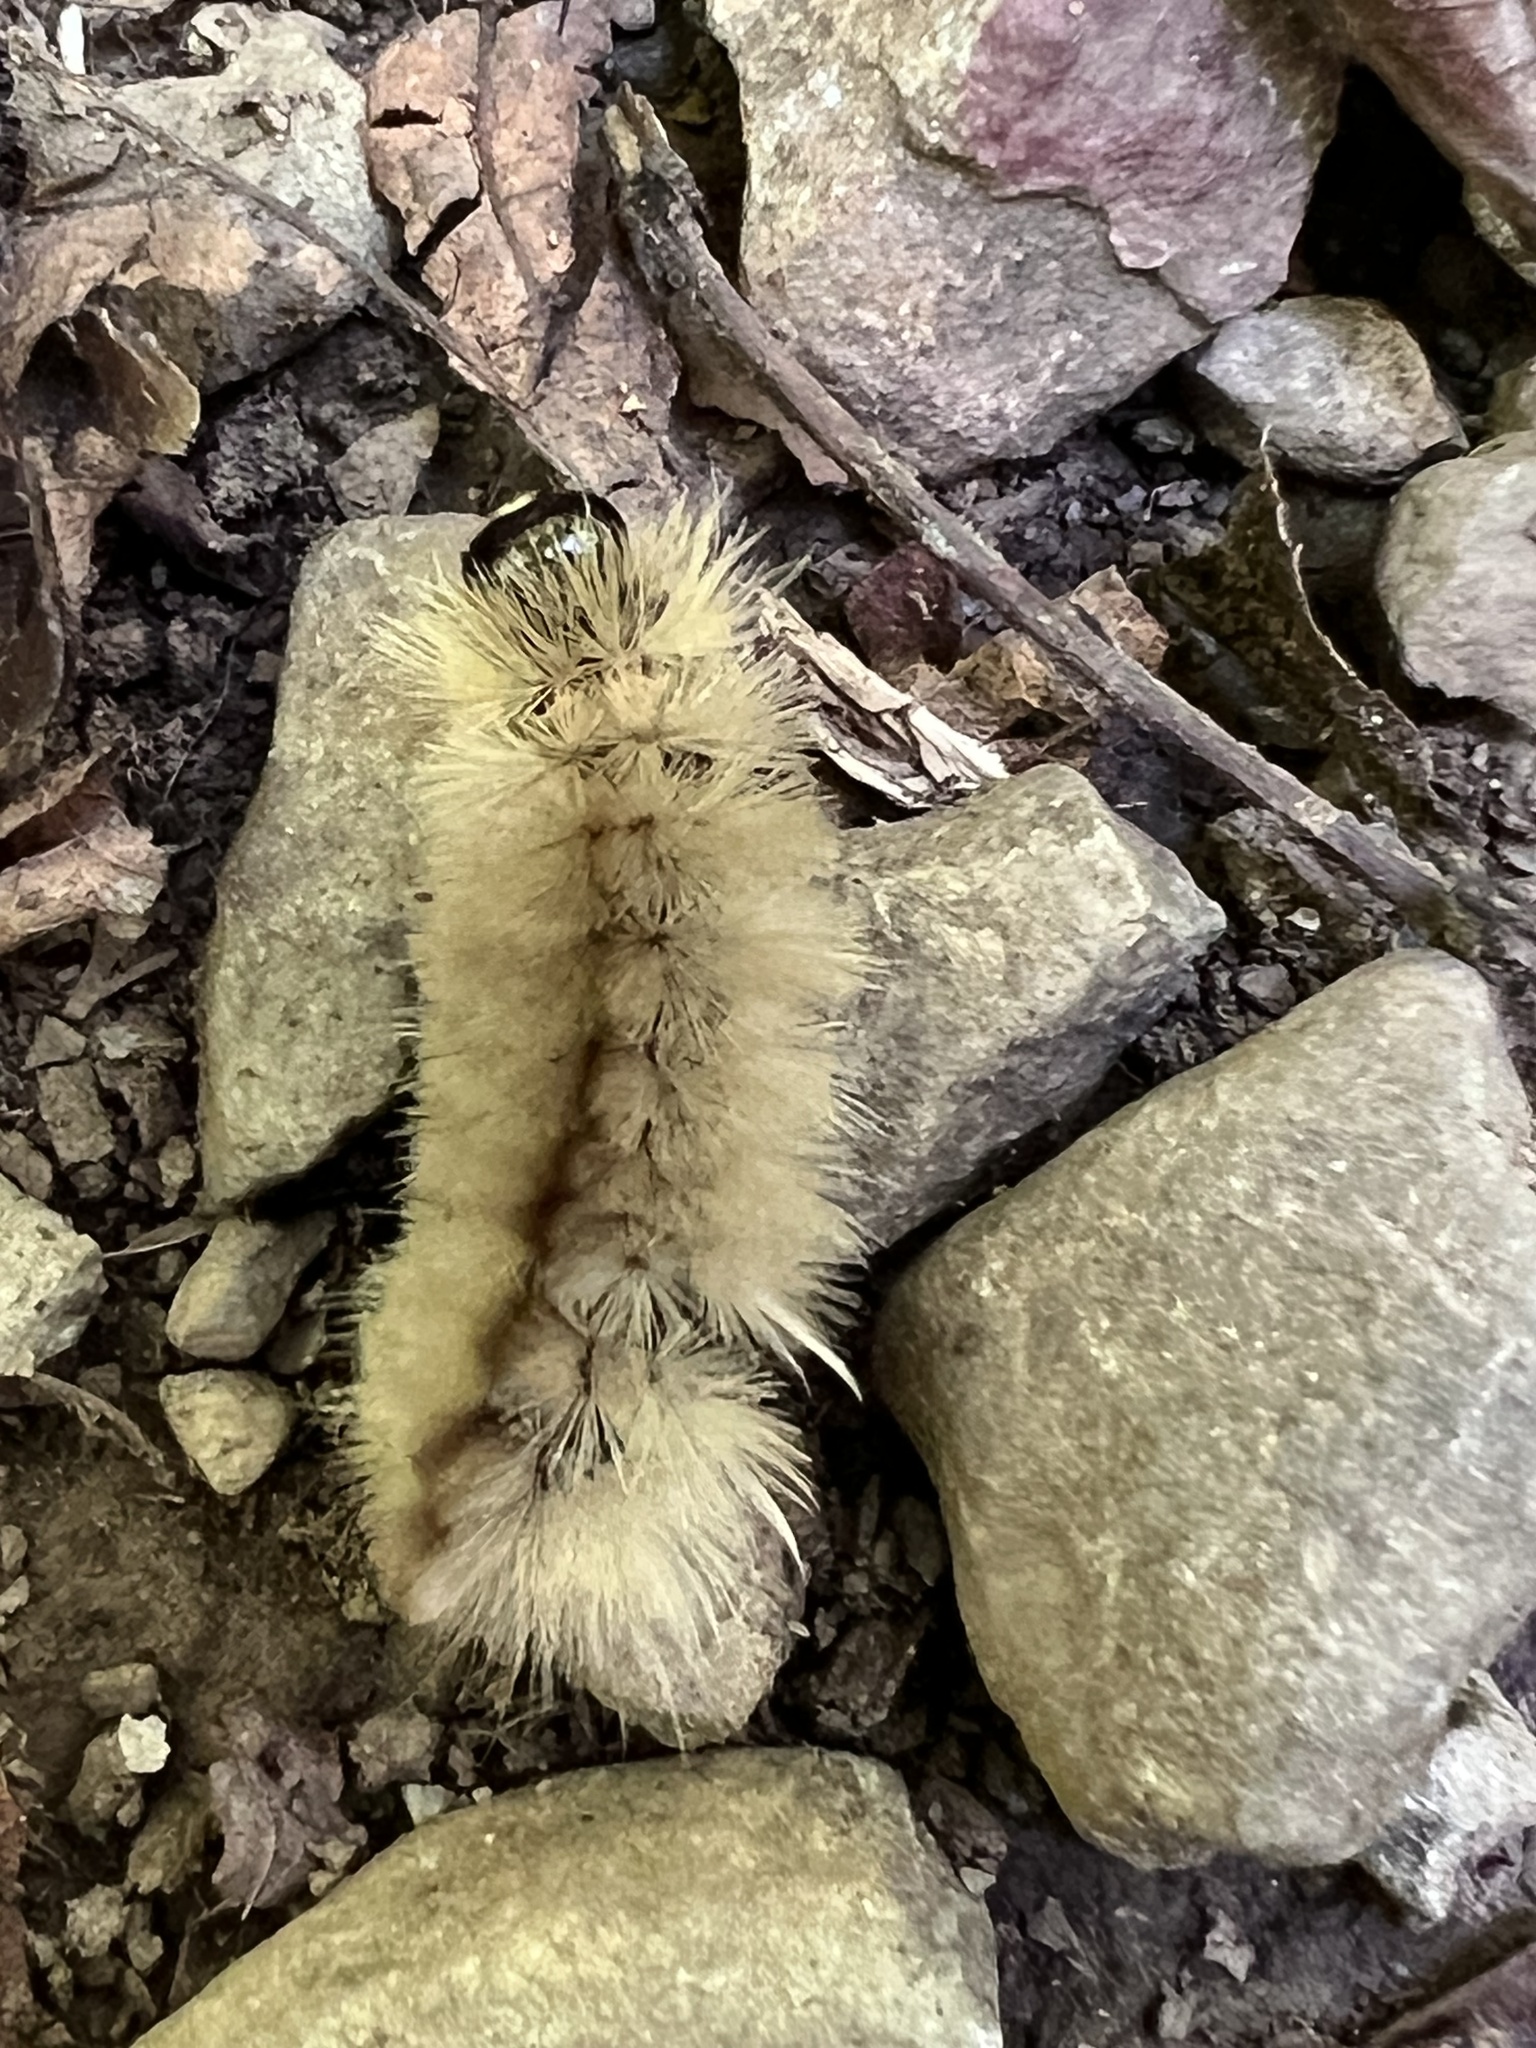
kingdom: Animalia
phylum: Arthropoda
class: Insecta
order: Lepidoptera
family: Erebidae
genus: Halysidota
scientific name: Halysidota tessellaris
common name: Banded tussock moth
